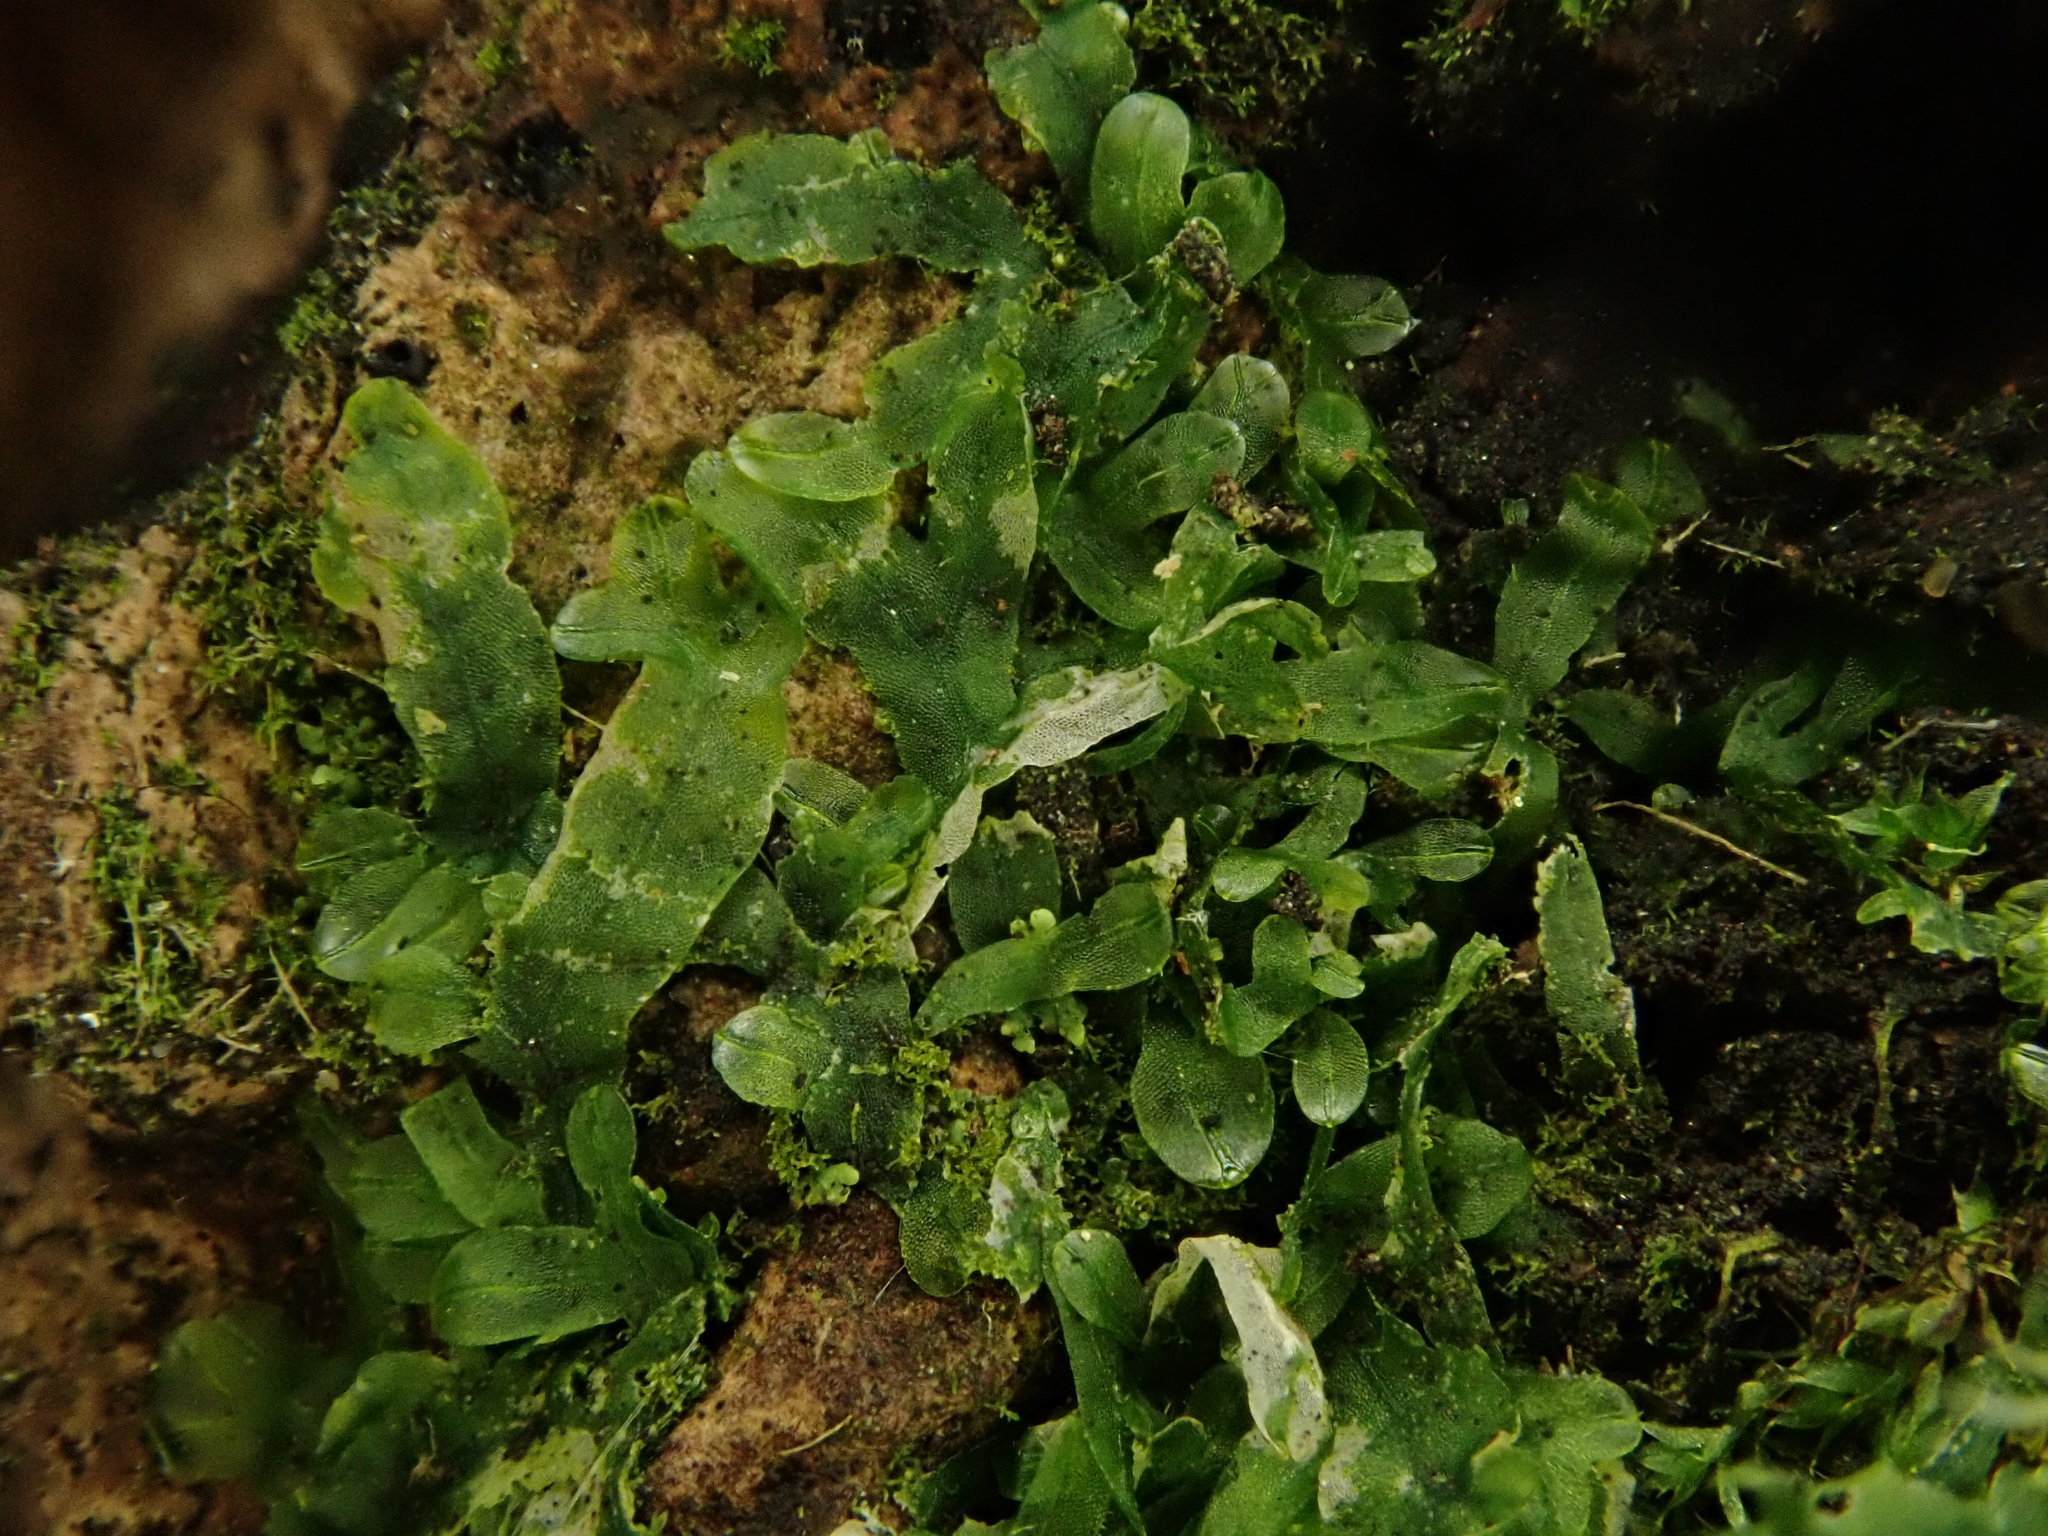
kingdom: Plantae
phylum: Marchantiophyta
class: Jungermanniopsida
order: Metzgeriales
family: Metzgeriaceae
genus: Metzgeria
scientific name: Metzgeria furcata
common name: Forked veilwort
